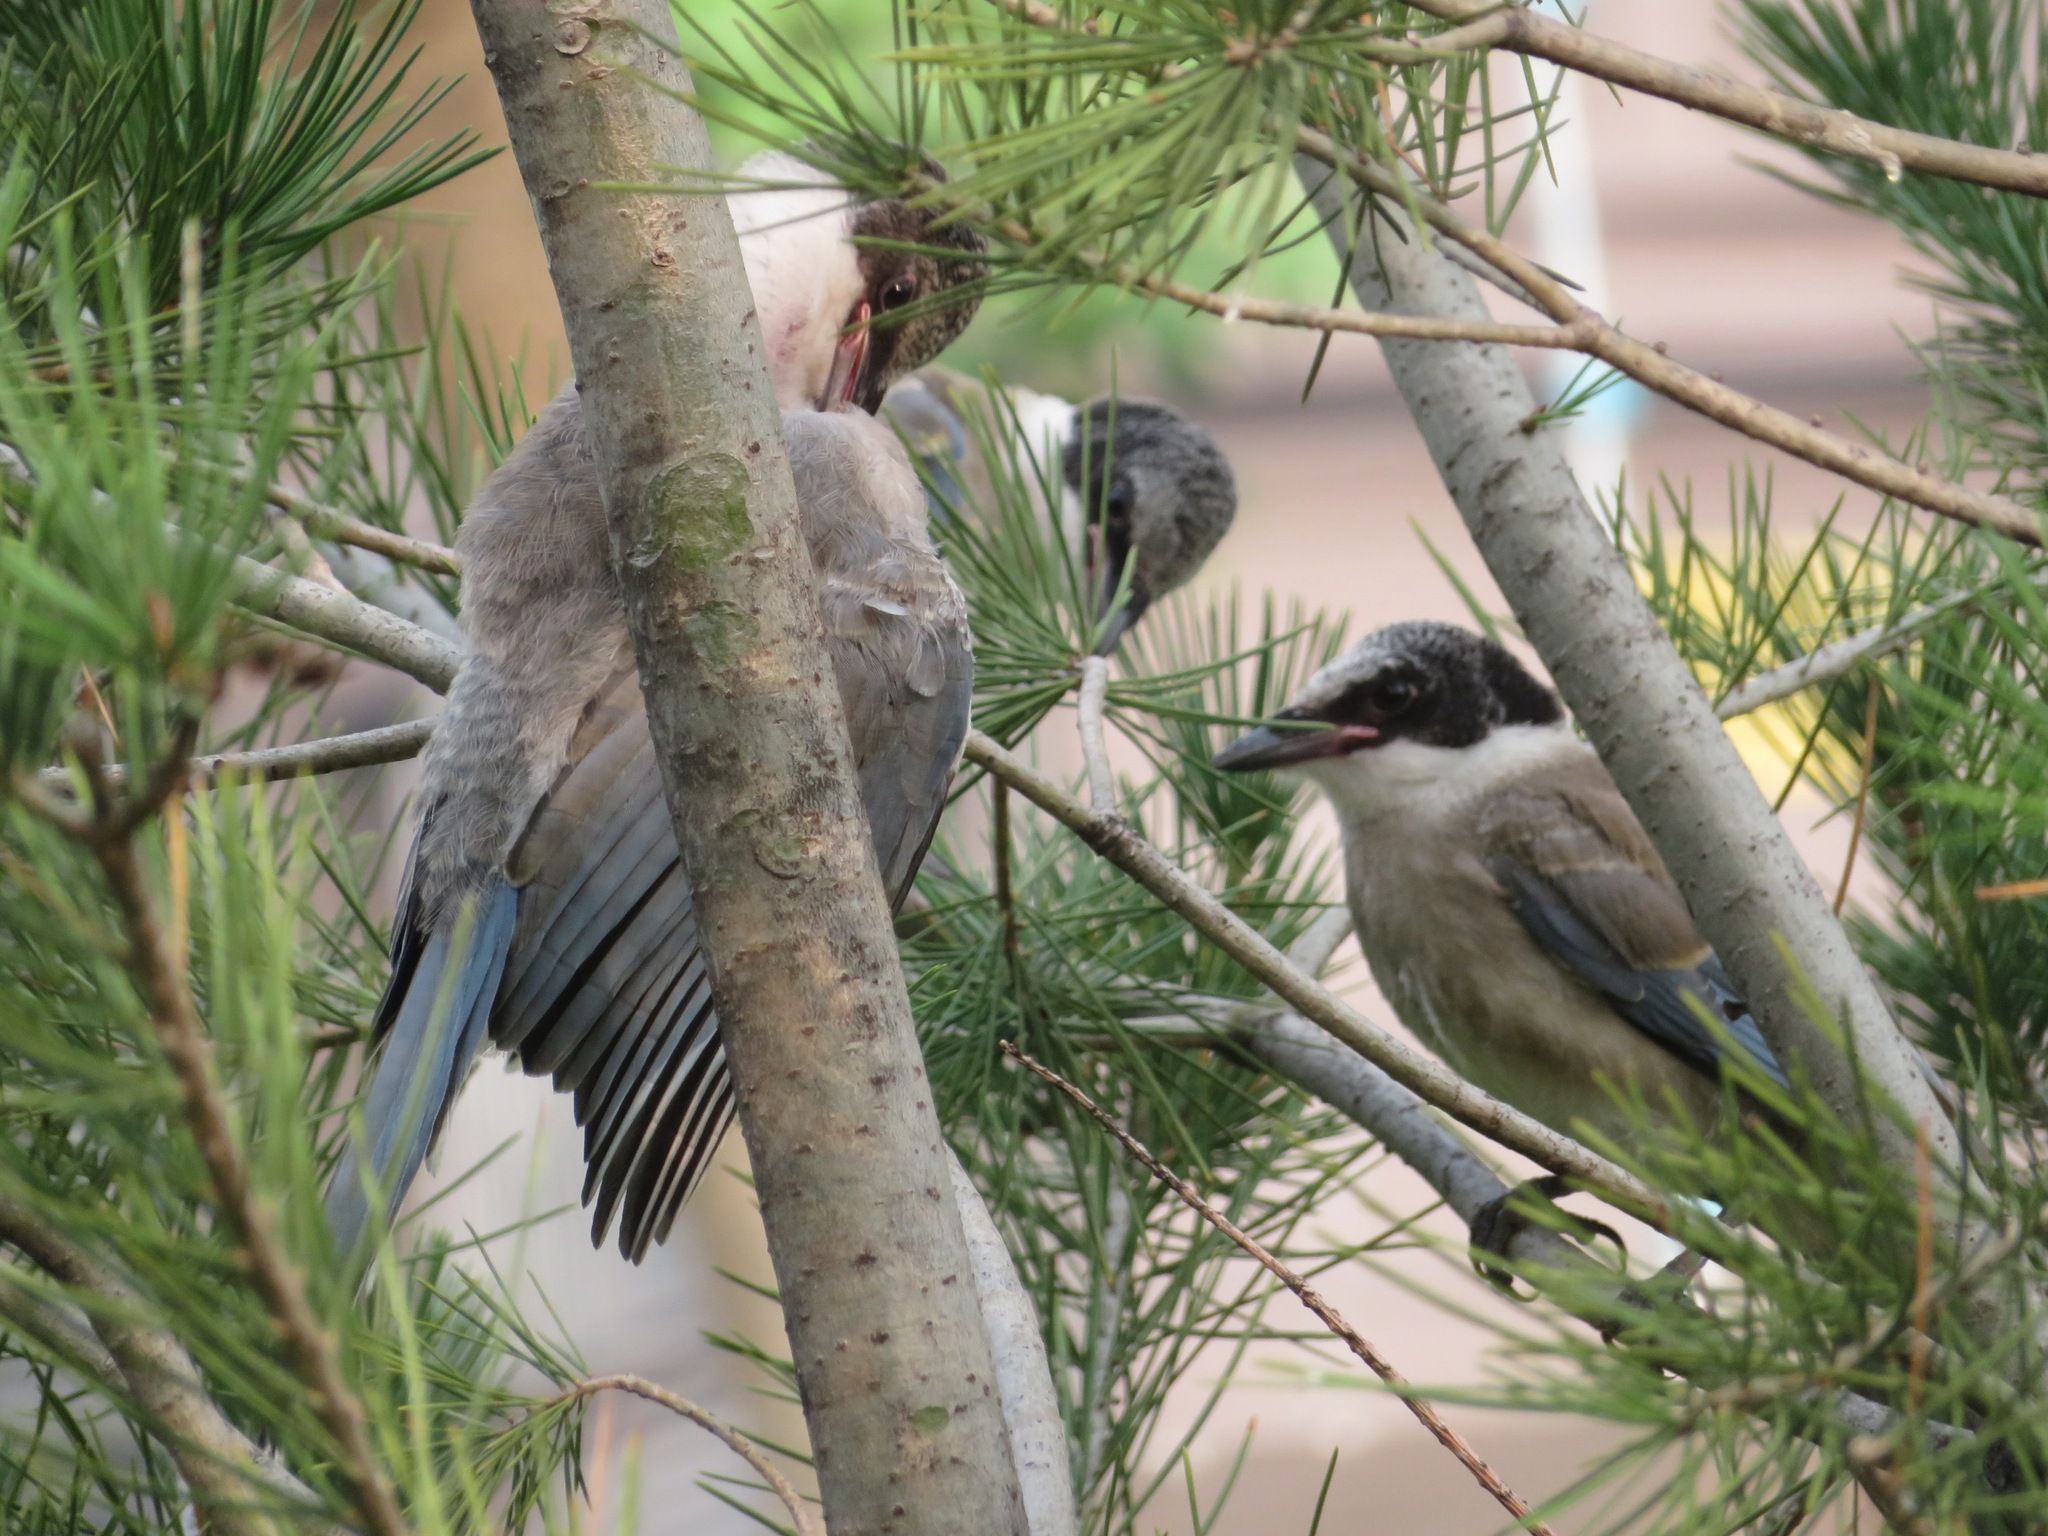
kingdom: Animalia
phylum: Chordata
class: Aves
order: Passeriformes
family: Corvidae
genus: Cyanopica
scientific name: Cyanopica cyanus
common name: Azure-winged magpie
